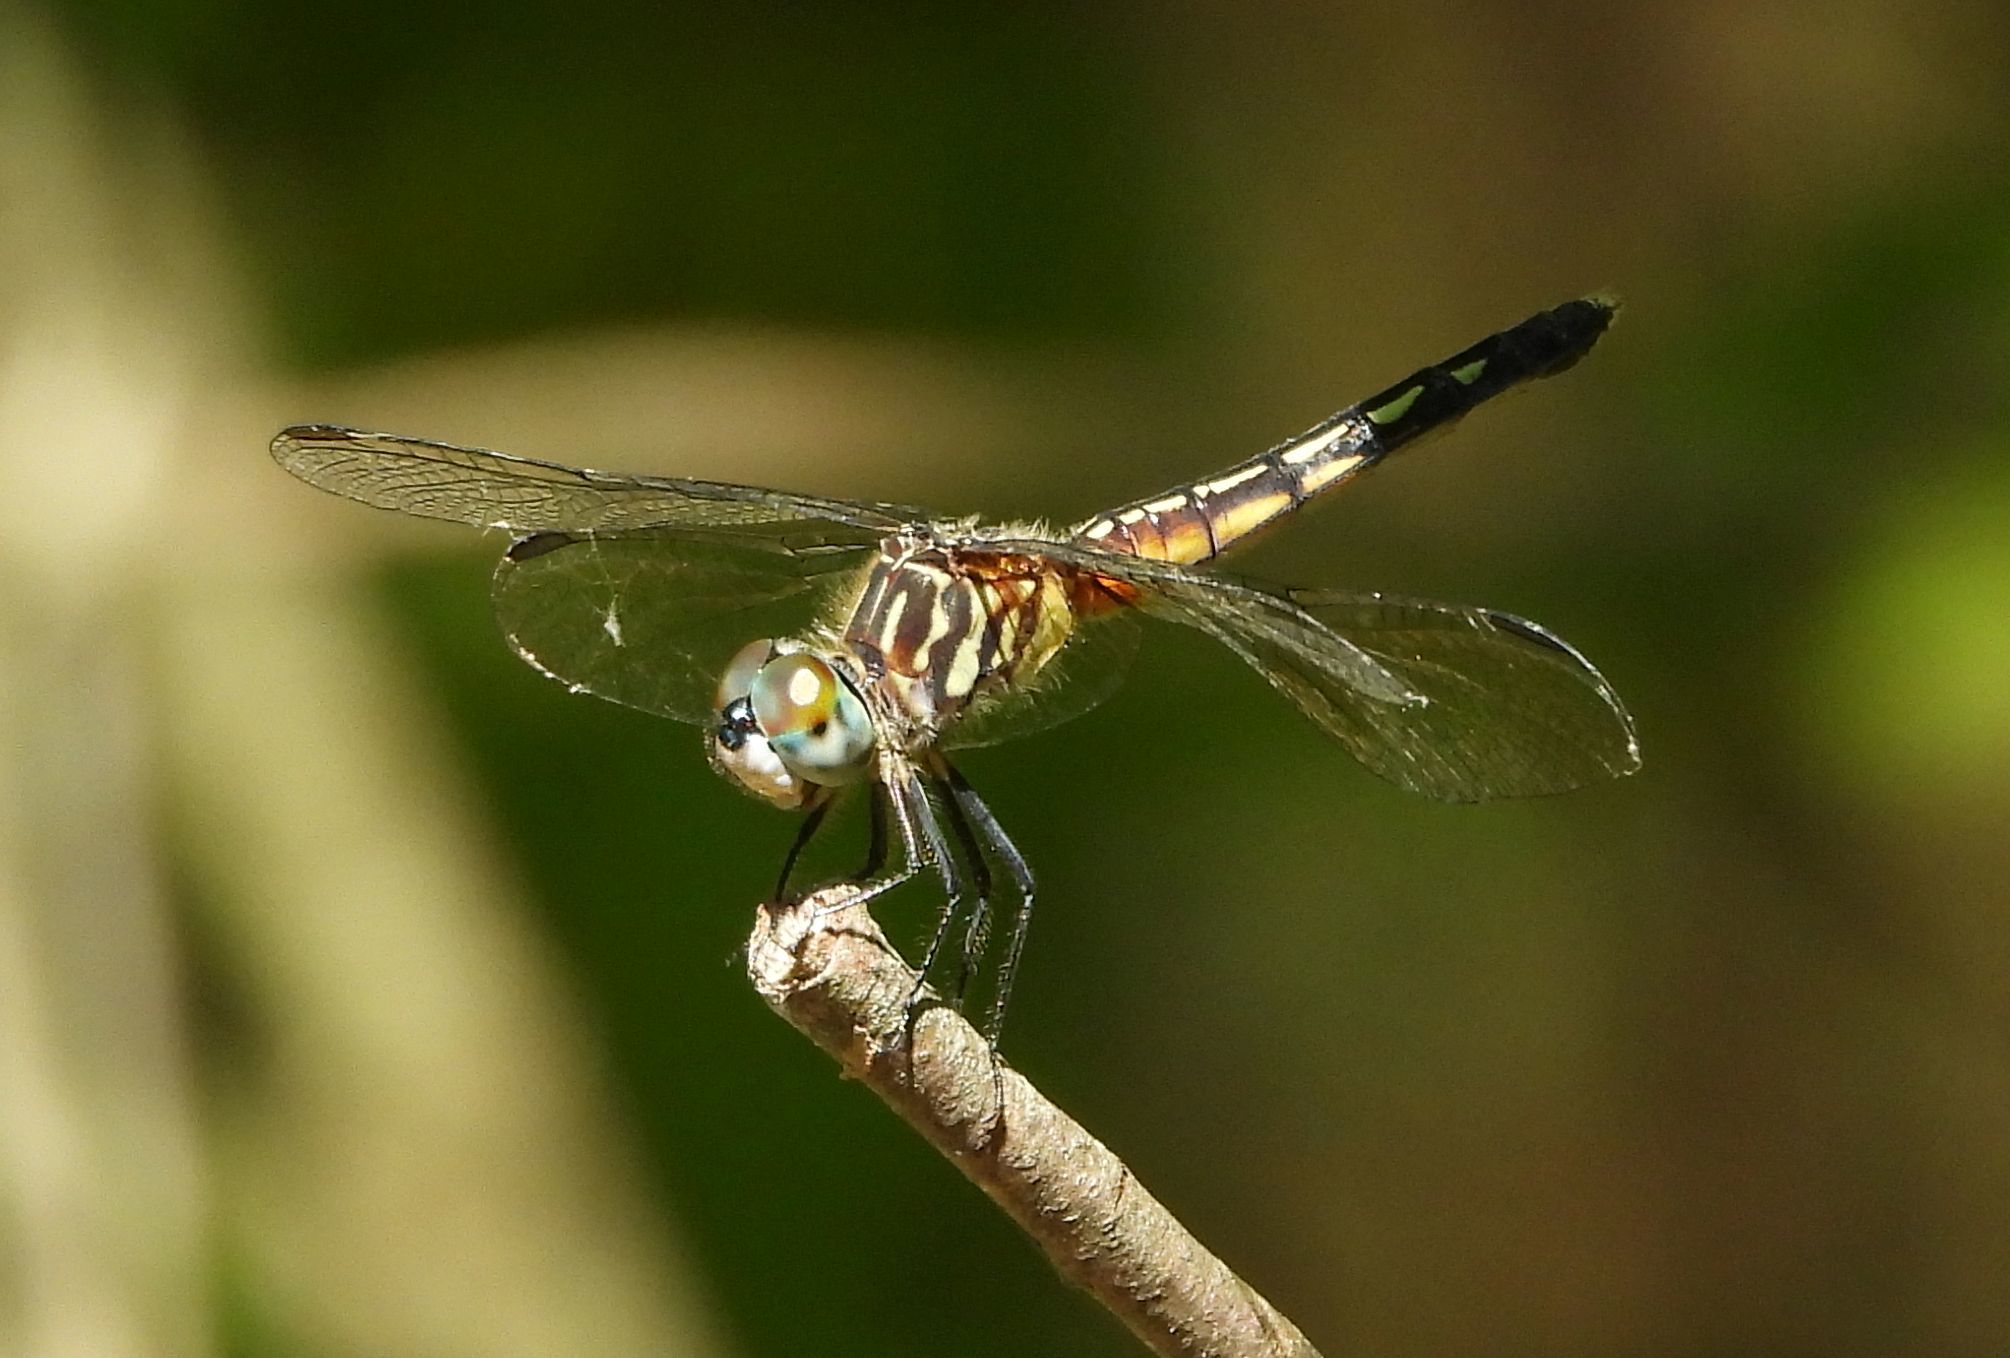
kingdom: Animalia
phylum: Arthropoda
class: Insecta
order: Odonata
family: Libellulidae
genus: Pachydiplax
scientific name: Pachydiplax longipennis
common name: Blue dasher
